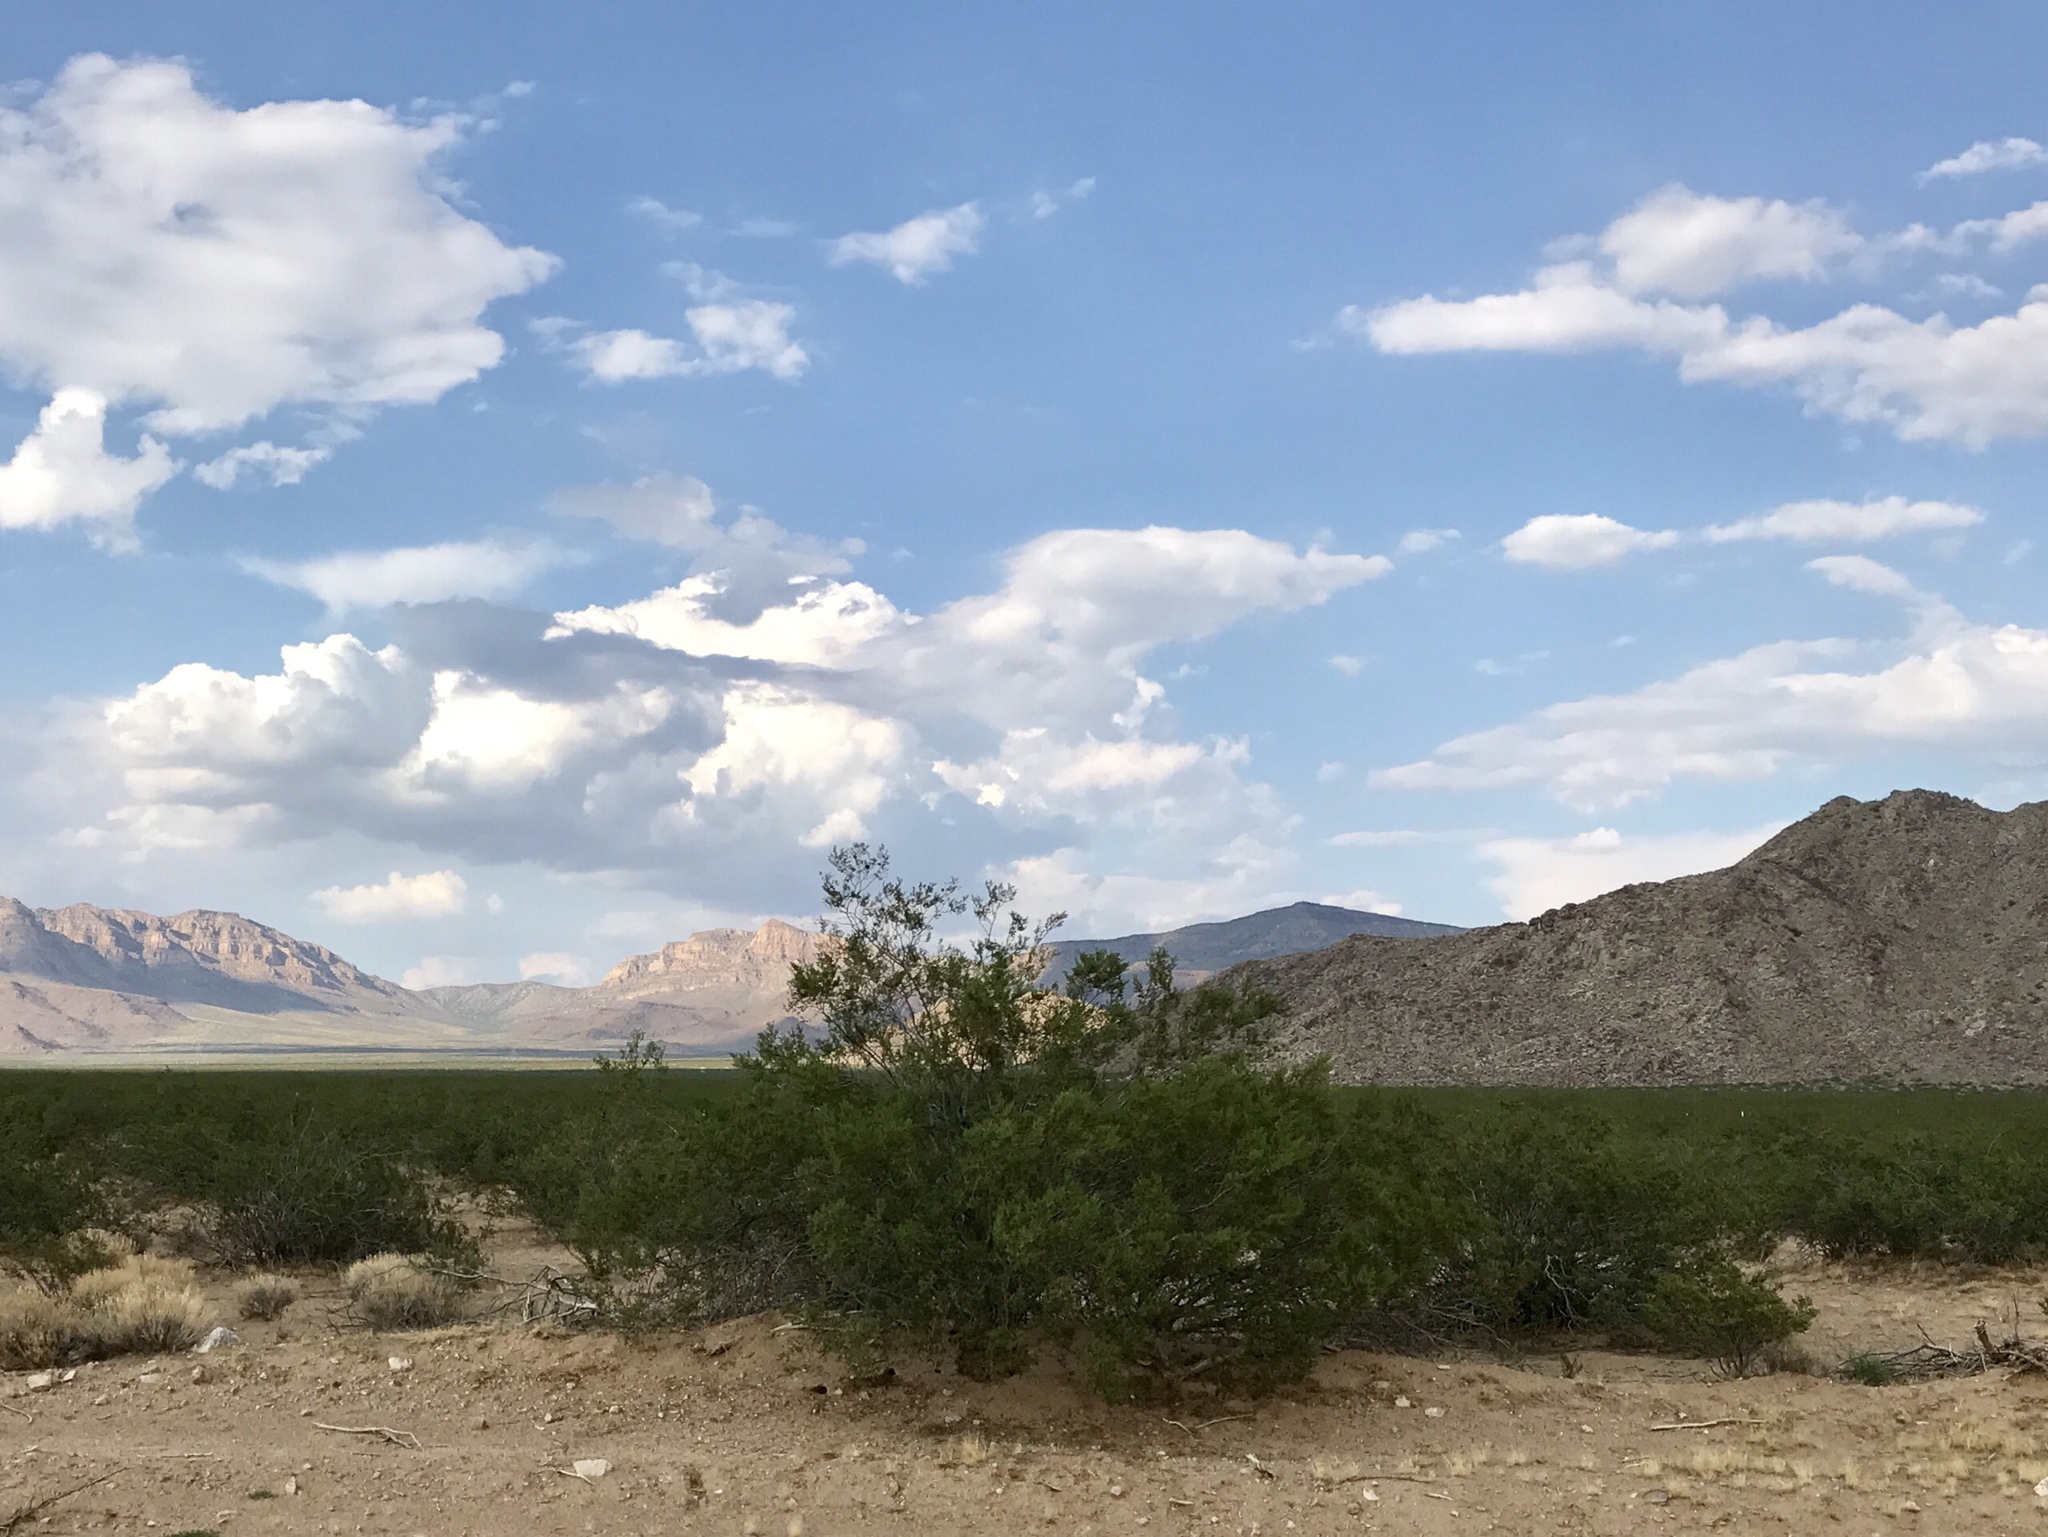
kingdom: Plantae
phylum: Tracheophyta
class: Magnoliopsida
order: Zygophyllales
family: Zygophyllaceae
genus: Larrea
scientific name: Larrea tridentata
